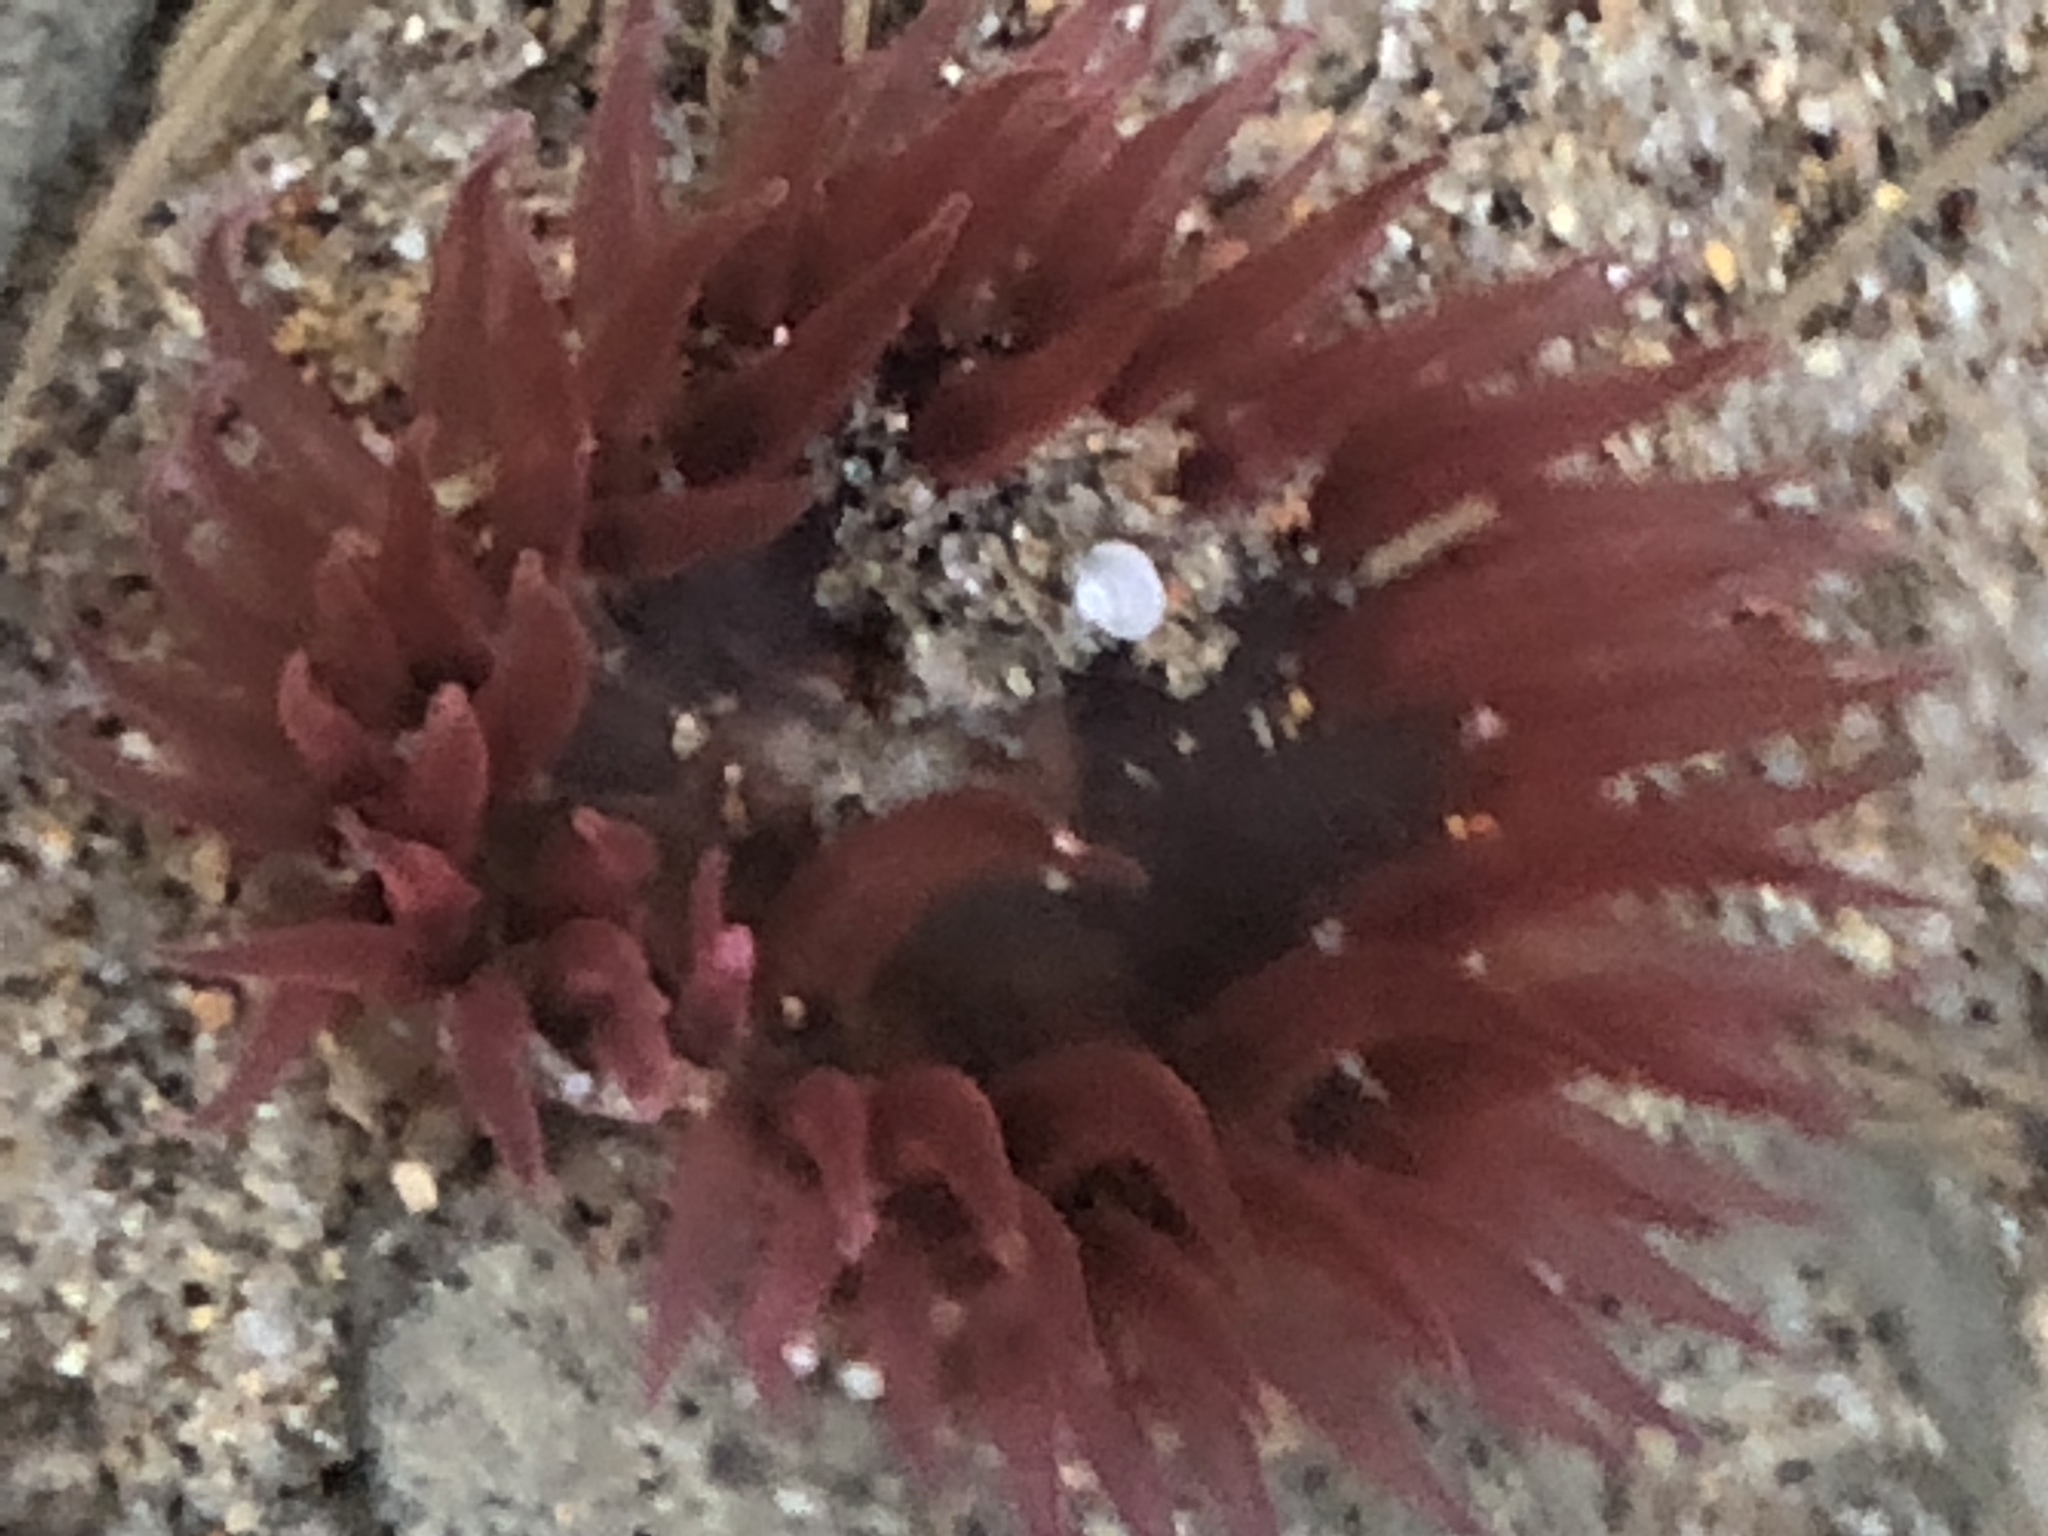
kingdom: Animalia
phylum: Cnidaria
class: Anthozoa
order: Actiniaria
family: Actiniidae
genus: Anthopleura
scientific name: Anthopleura artemisia
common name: Buried sea anemone
